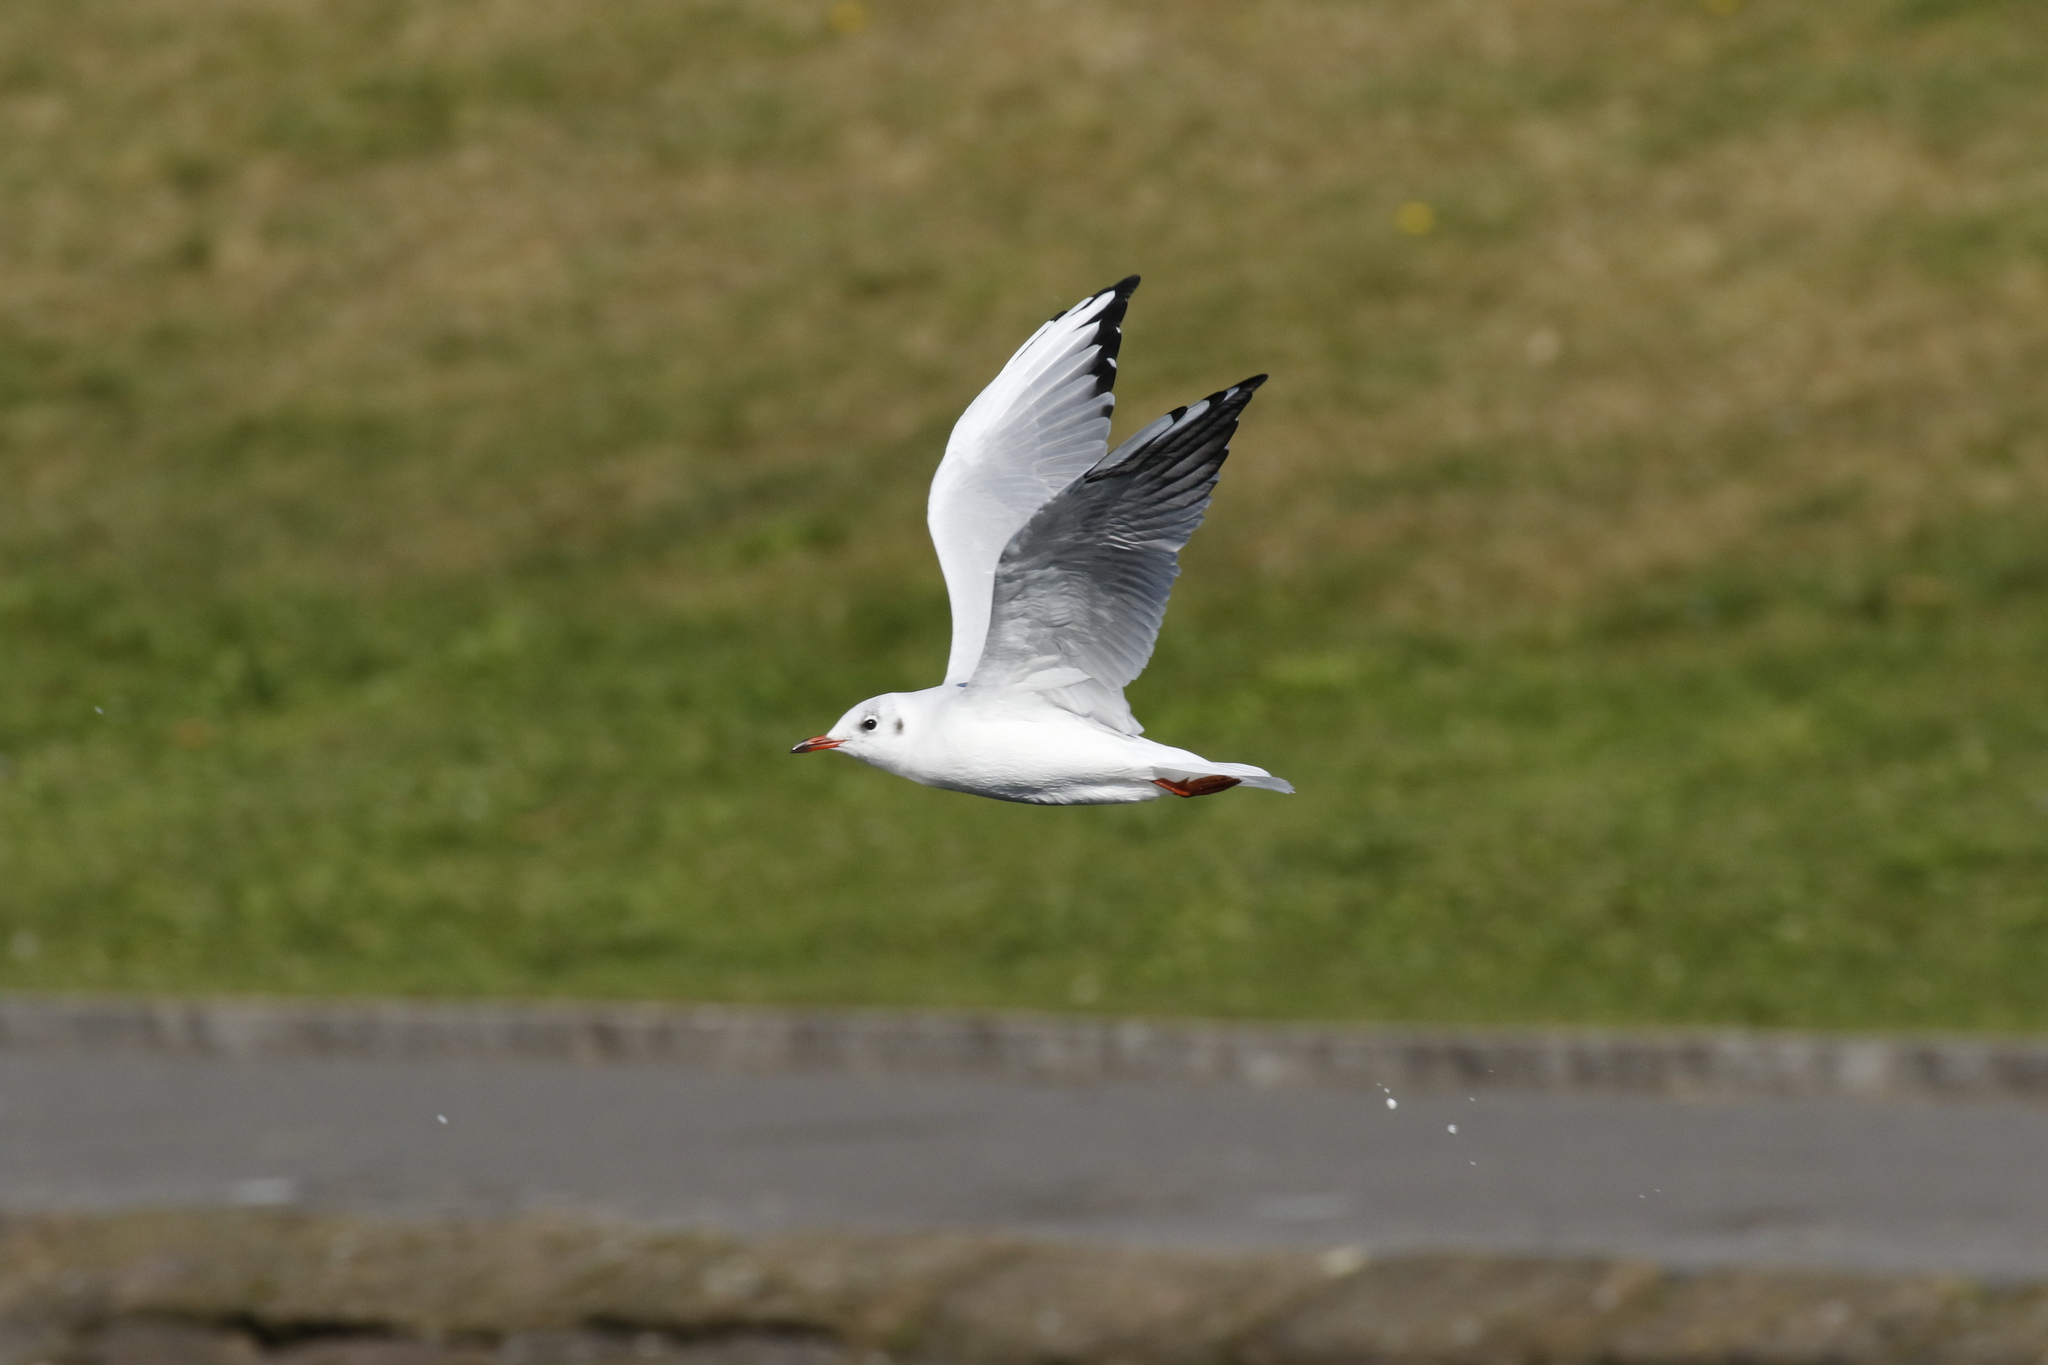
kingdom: Animalia
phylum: Chordata
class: Aves
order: Charadriiformes
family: Laridae
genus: Chroicocephalus
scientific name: Chroicocephalus ridibundus
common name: Black-headed gull
